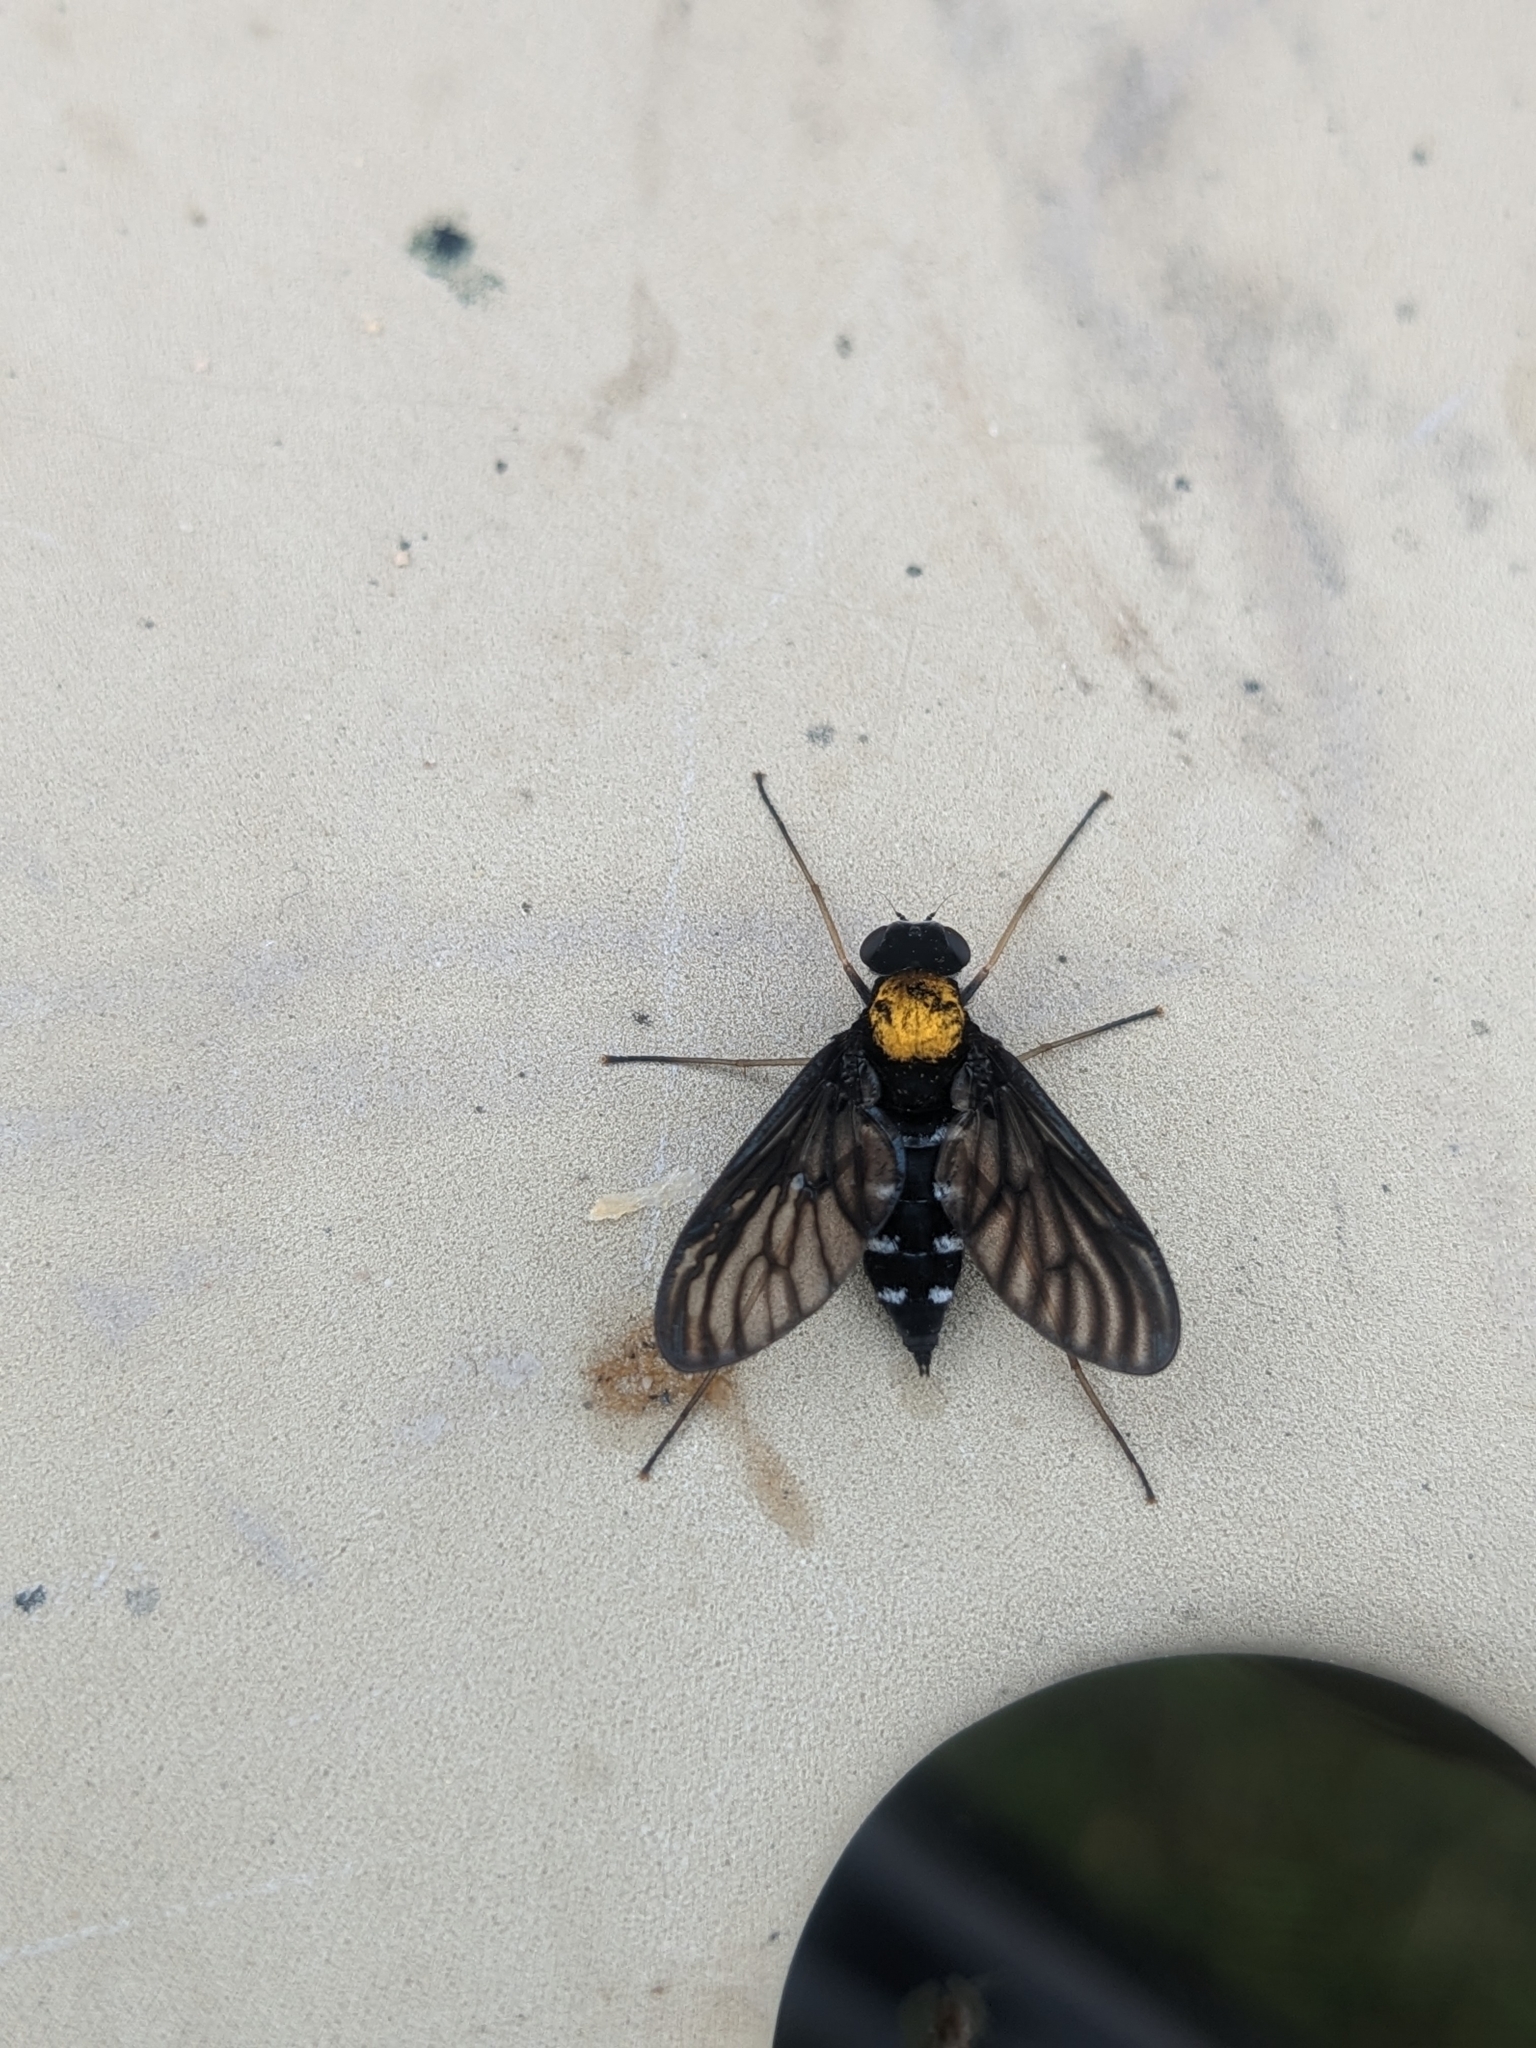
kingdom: Animalia
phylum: Arthropoda
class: Insecta
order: Diptera
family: Rhagionidae
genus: Chrysopilus
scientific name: Chrysopilus thoracicus
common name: Golden-backed snipe fly
